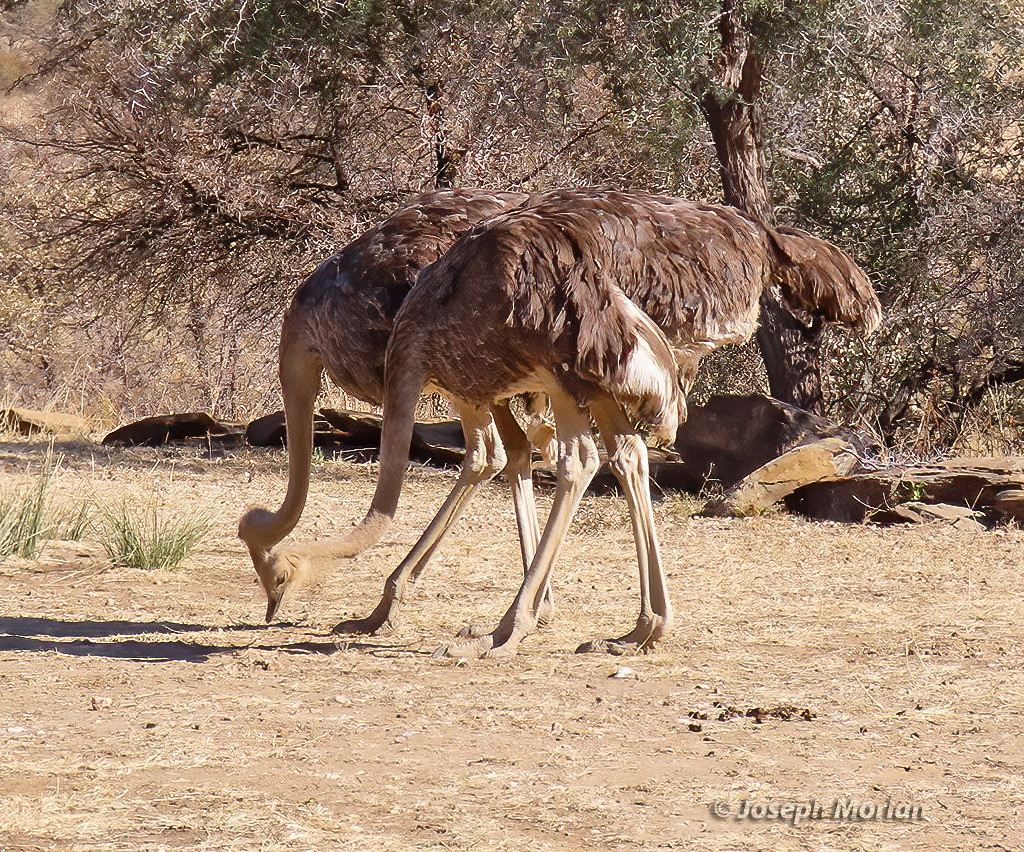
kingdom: Animalia
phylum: Chordata
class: Aves
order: Struthioniformes
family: Struthionidae
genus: Struthio
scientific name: Struthio camelus
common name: Common ostrich
